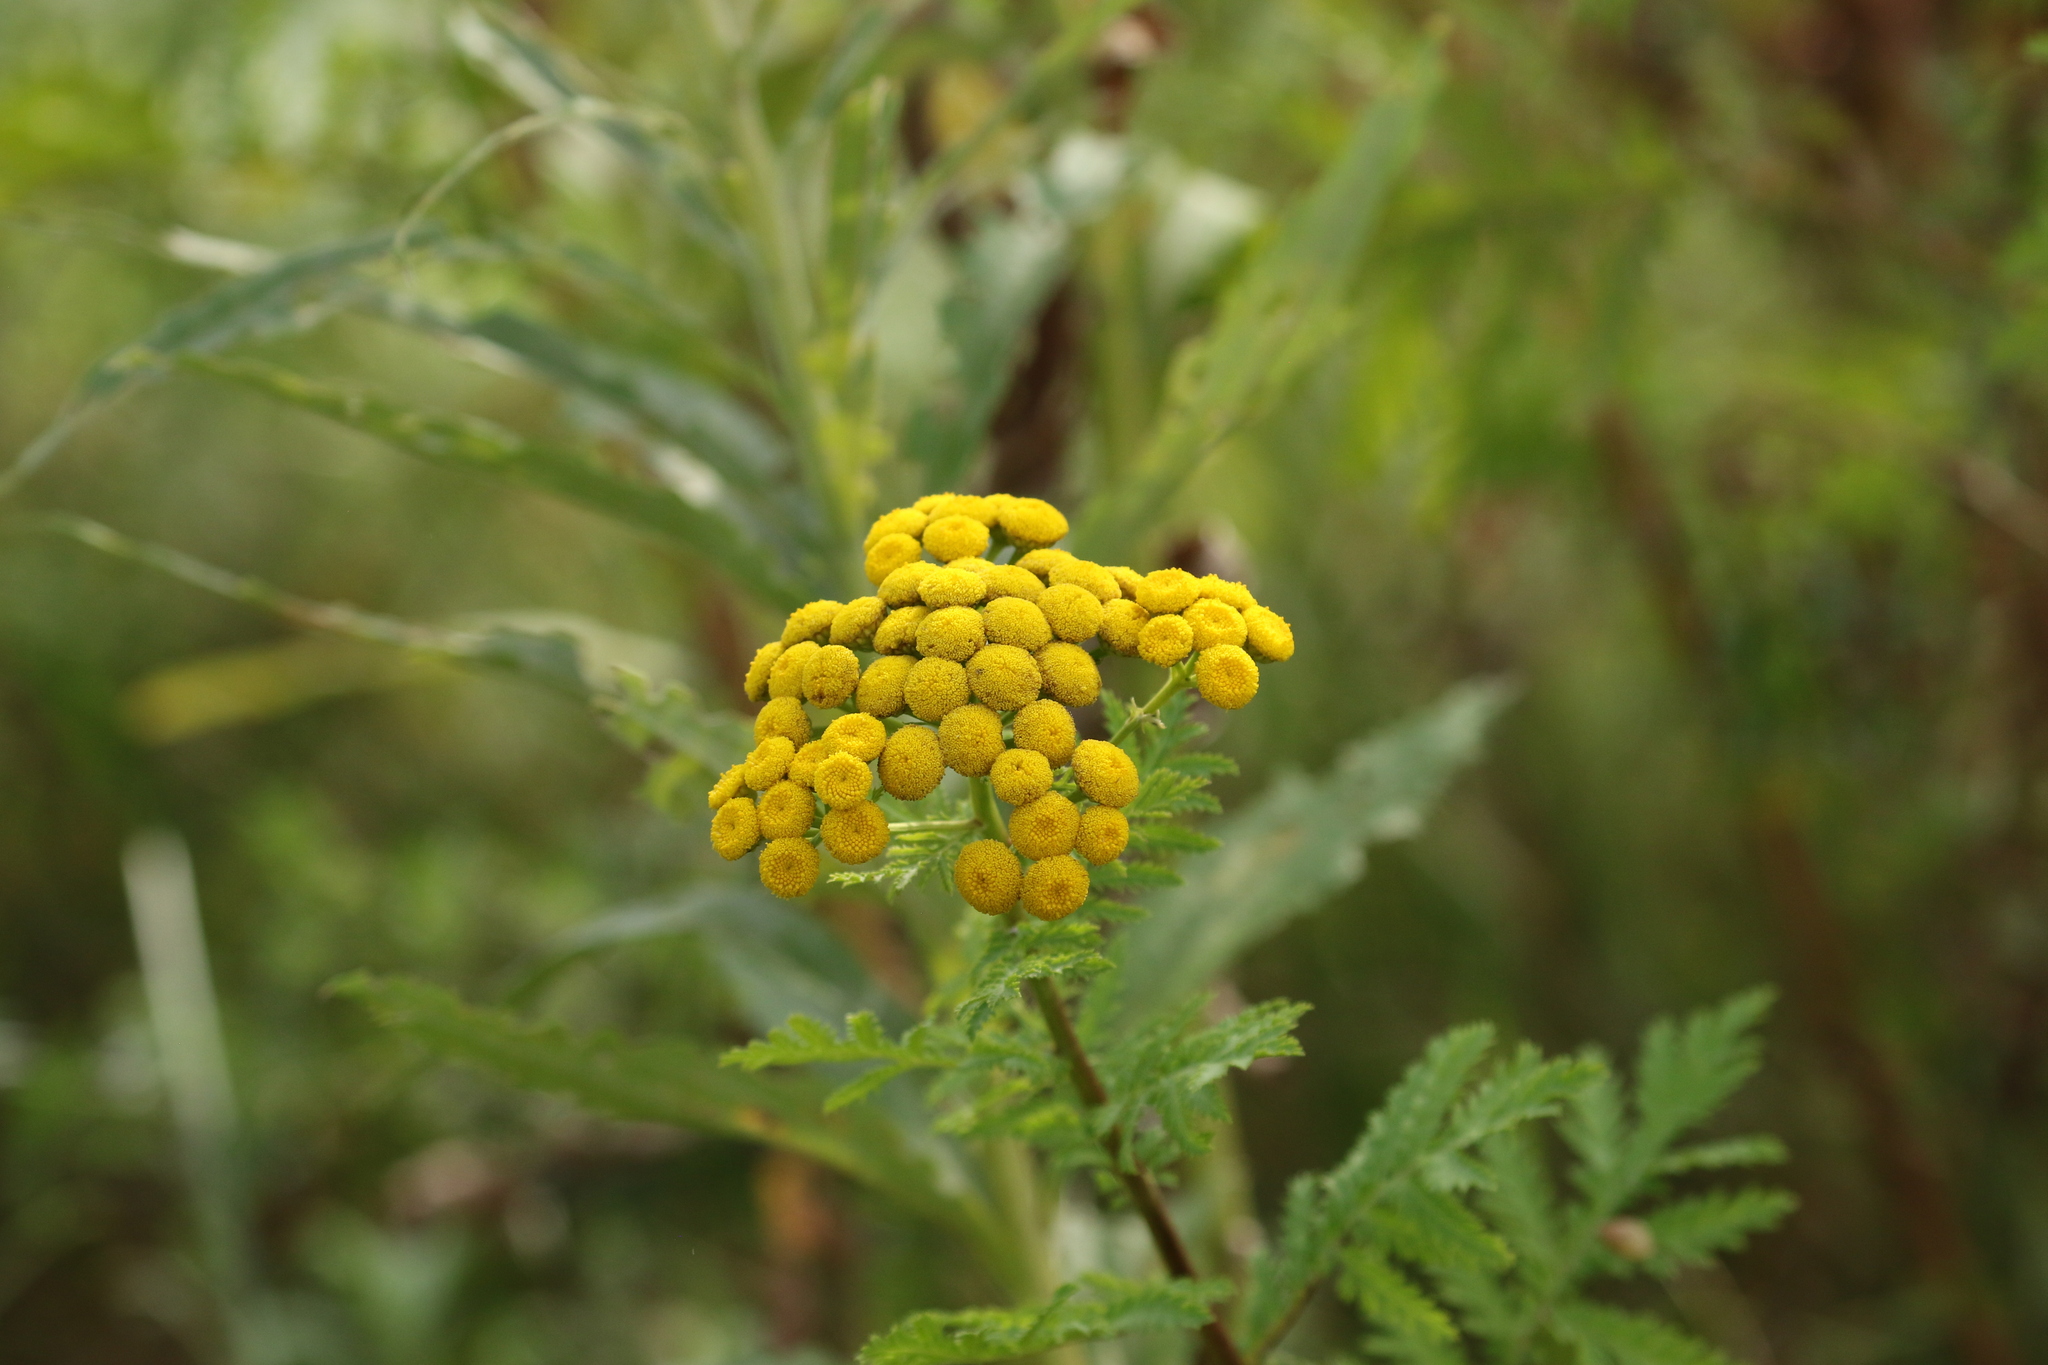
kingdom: Plantae
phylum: Tracheophyta
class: Magnoliopsida
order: Asterales
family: Asteraceae
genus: Tanacetum
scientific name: Tanacetum vulgare
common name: Common tansy
